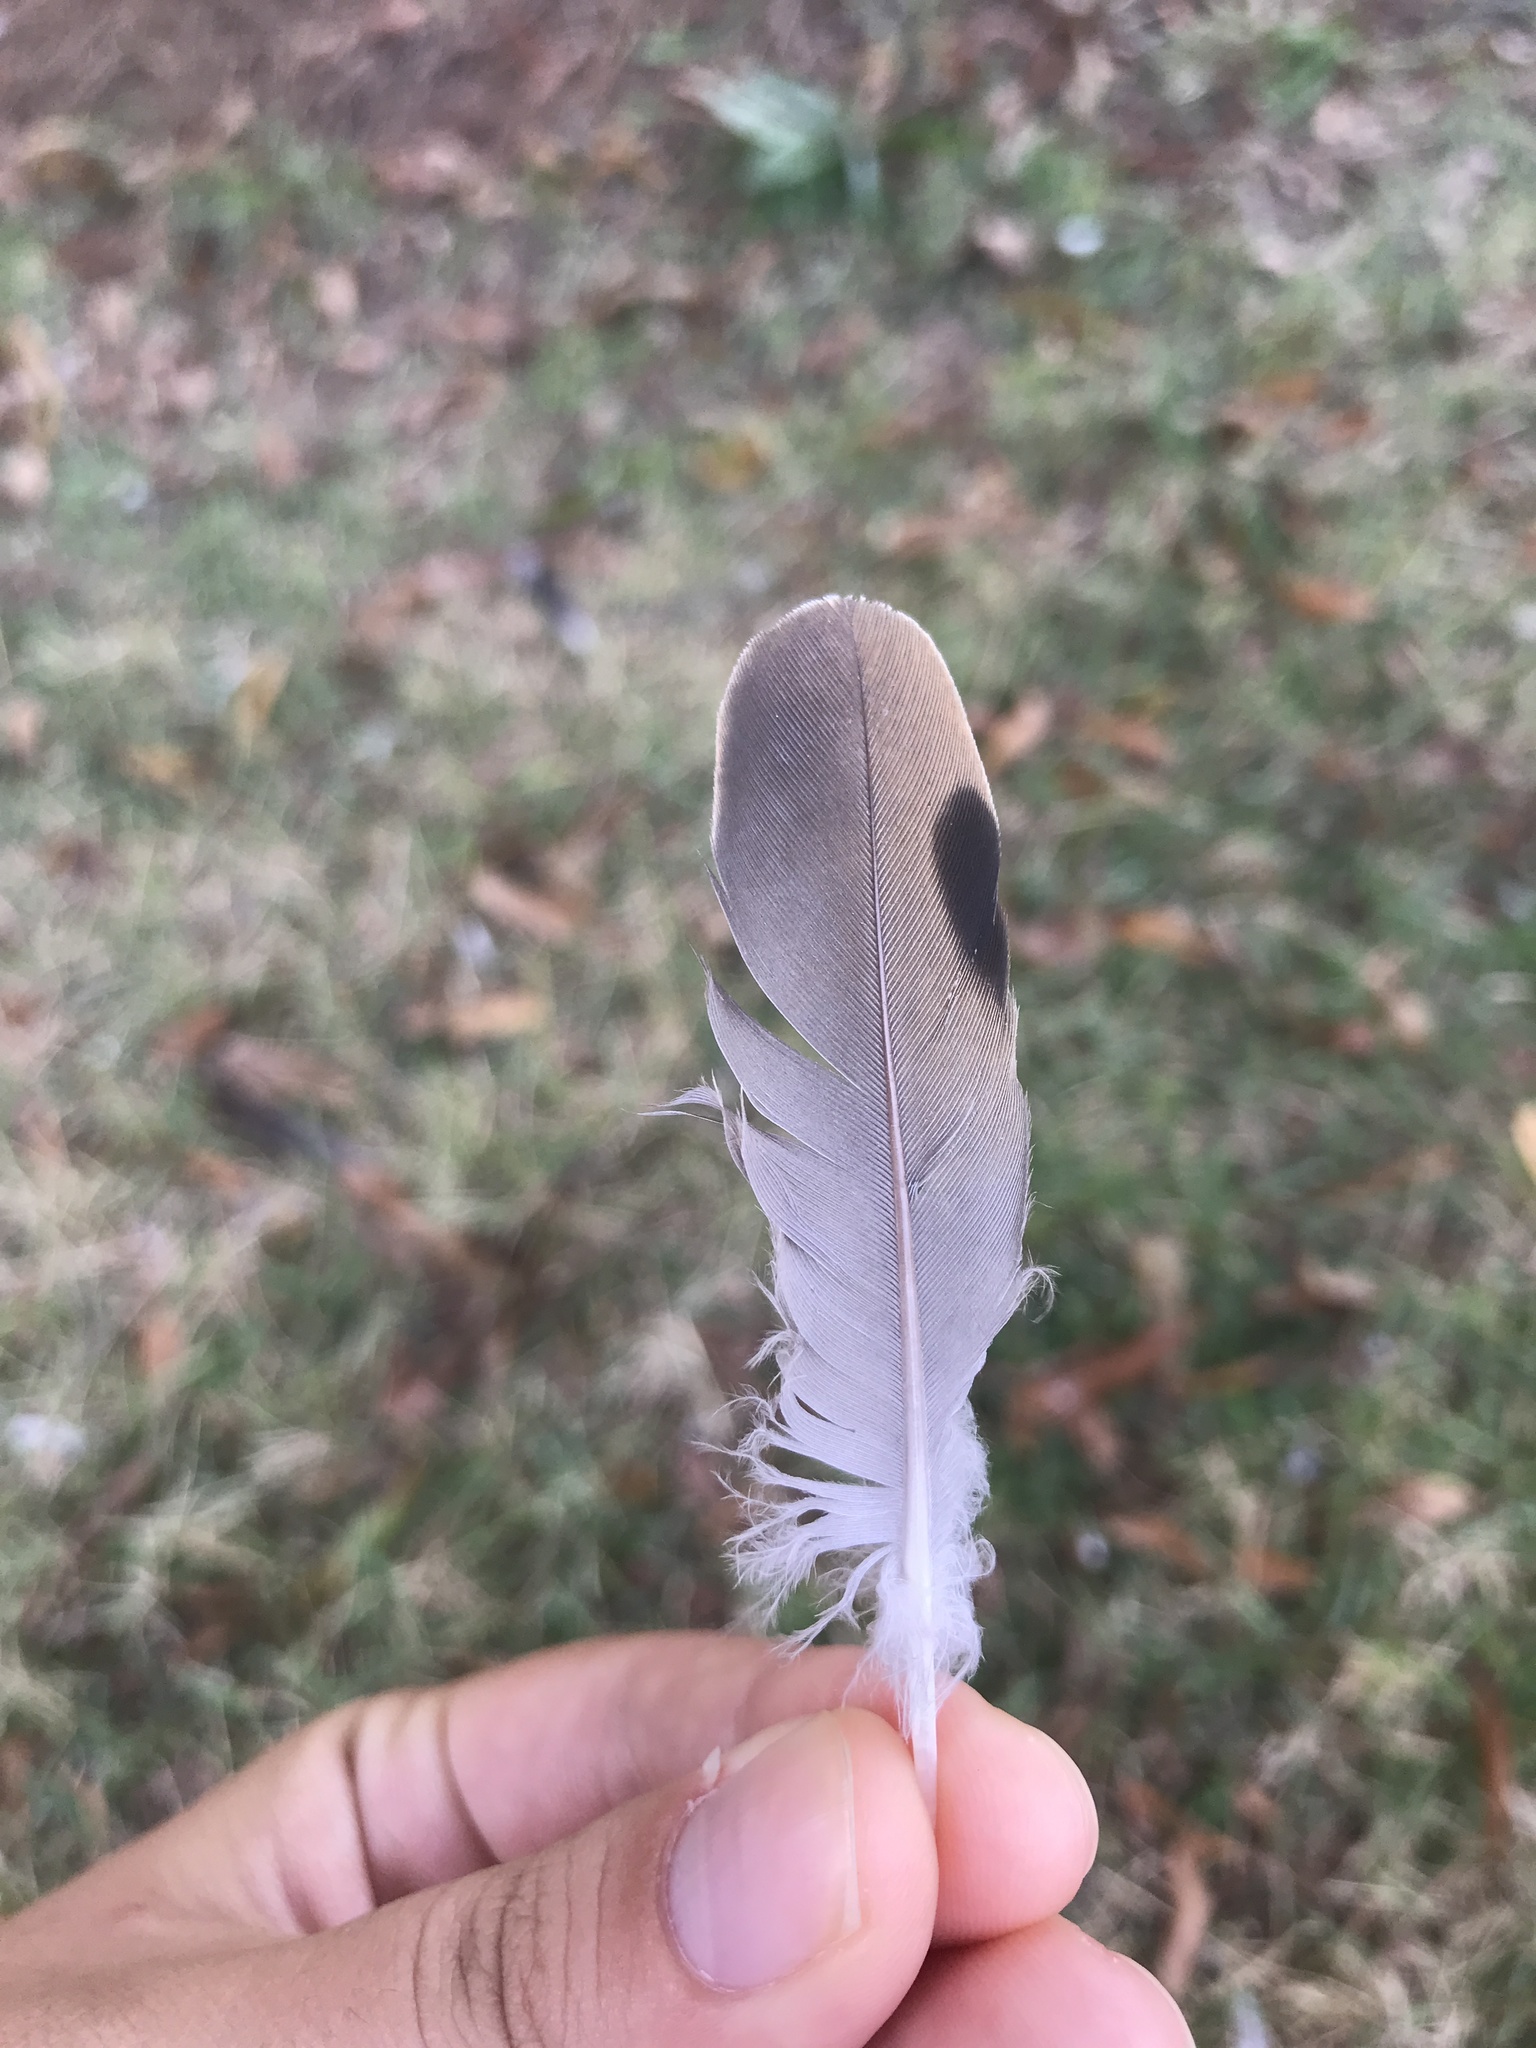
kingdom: Animalia
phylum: Chordata
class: Aves
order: Columbiformes
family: Columbidae
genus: Zenaida
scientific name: Zenaida macroura
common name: Mourning dove
